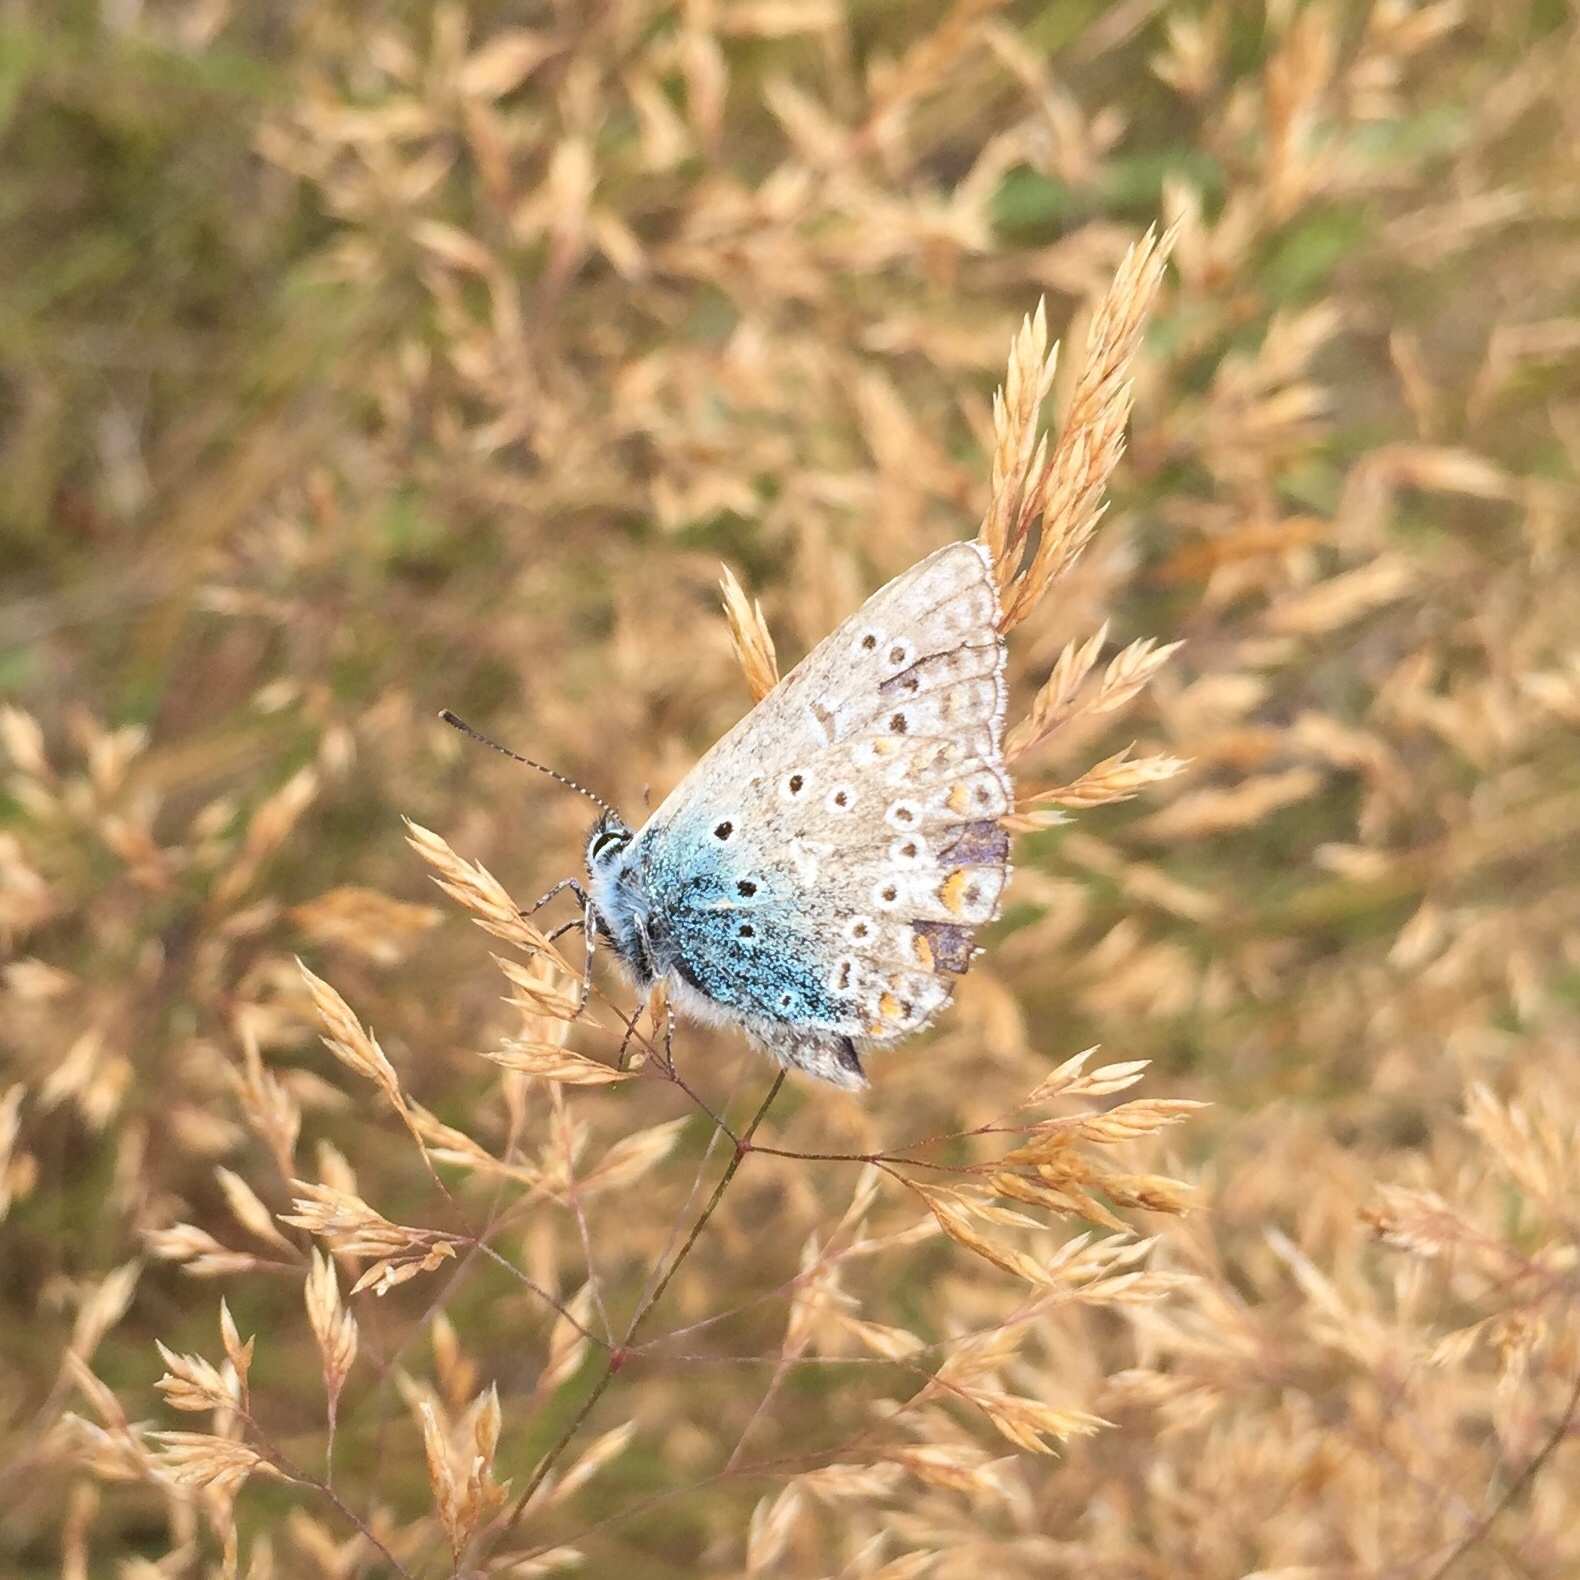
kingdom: Animalia
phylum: Arthropoda
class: Insecta
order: Lepidoptera
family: Lycaenidae
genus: Polyommatus
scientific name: Polyommatus icarus
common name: Common blue
